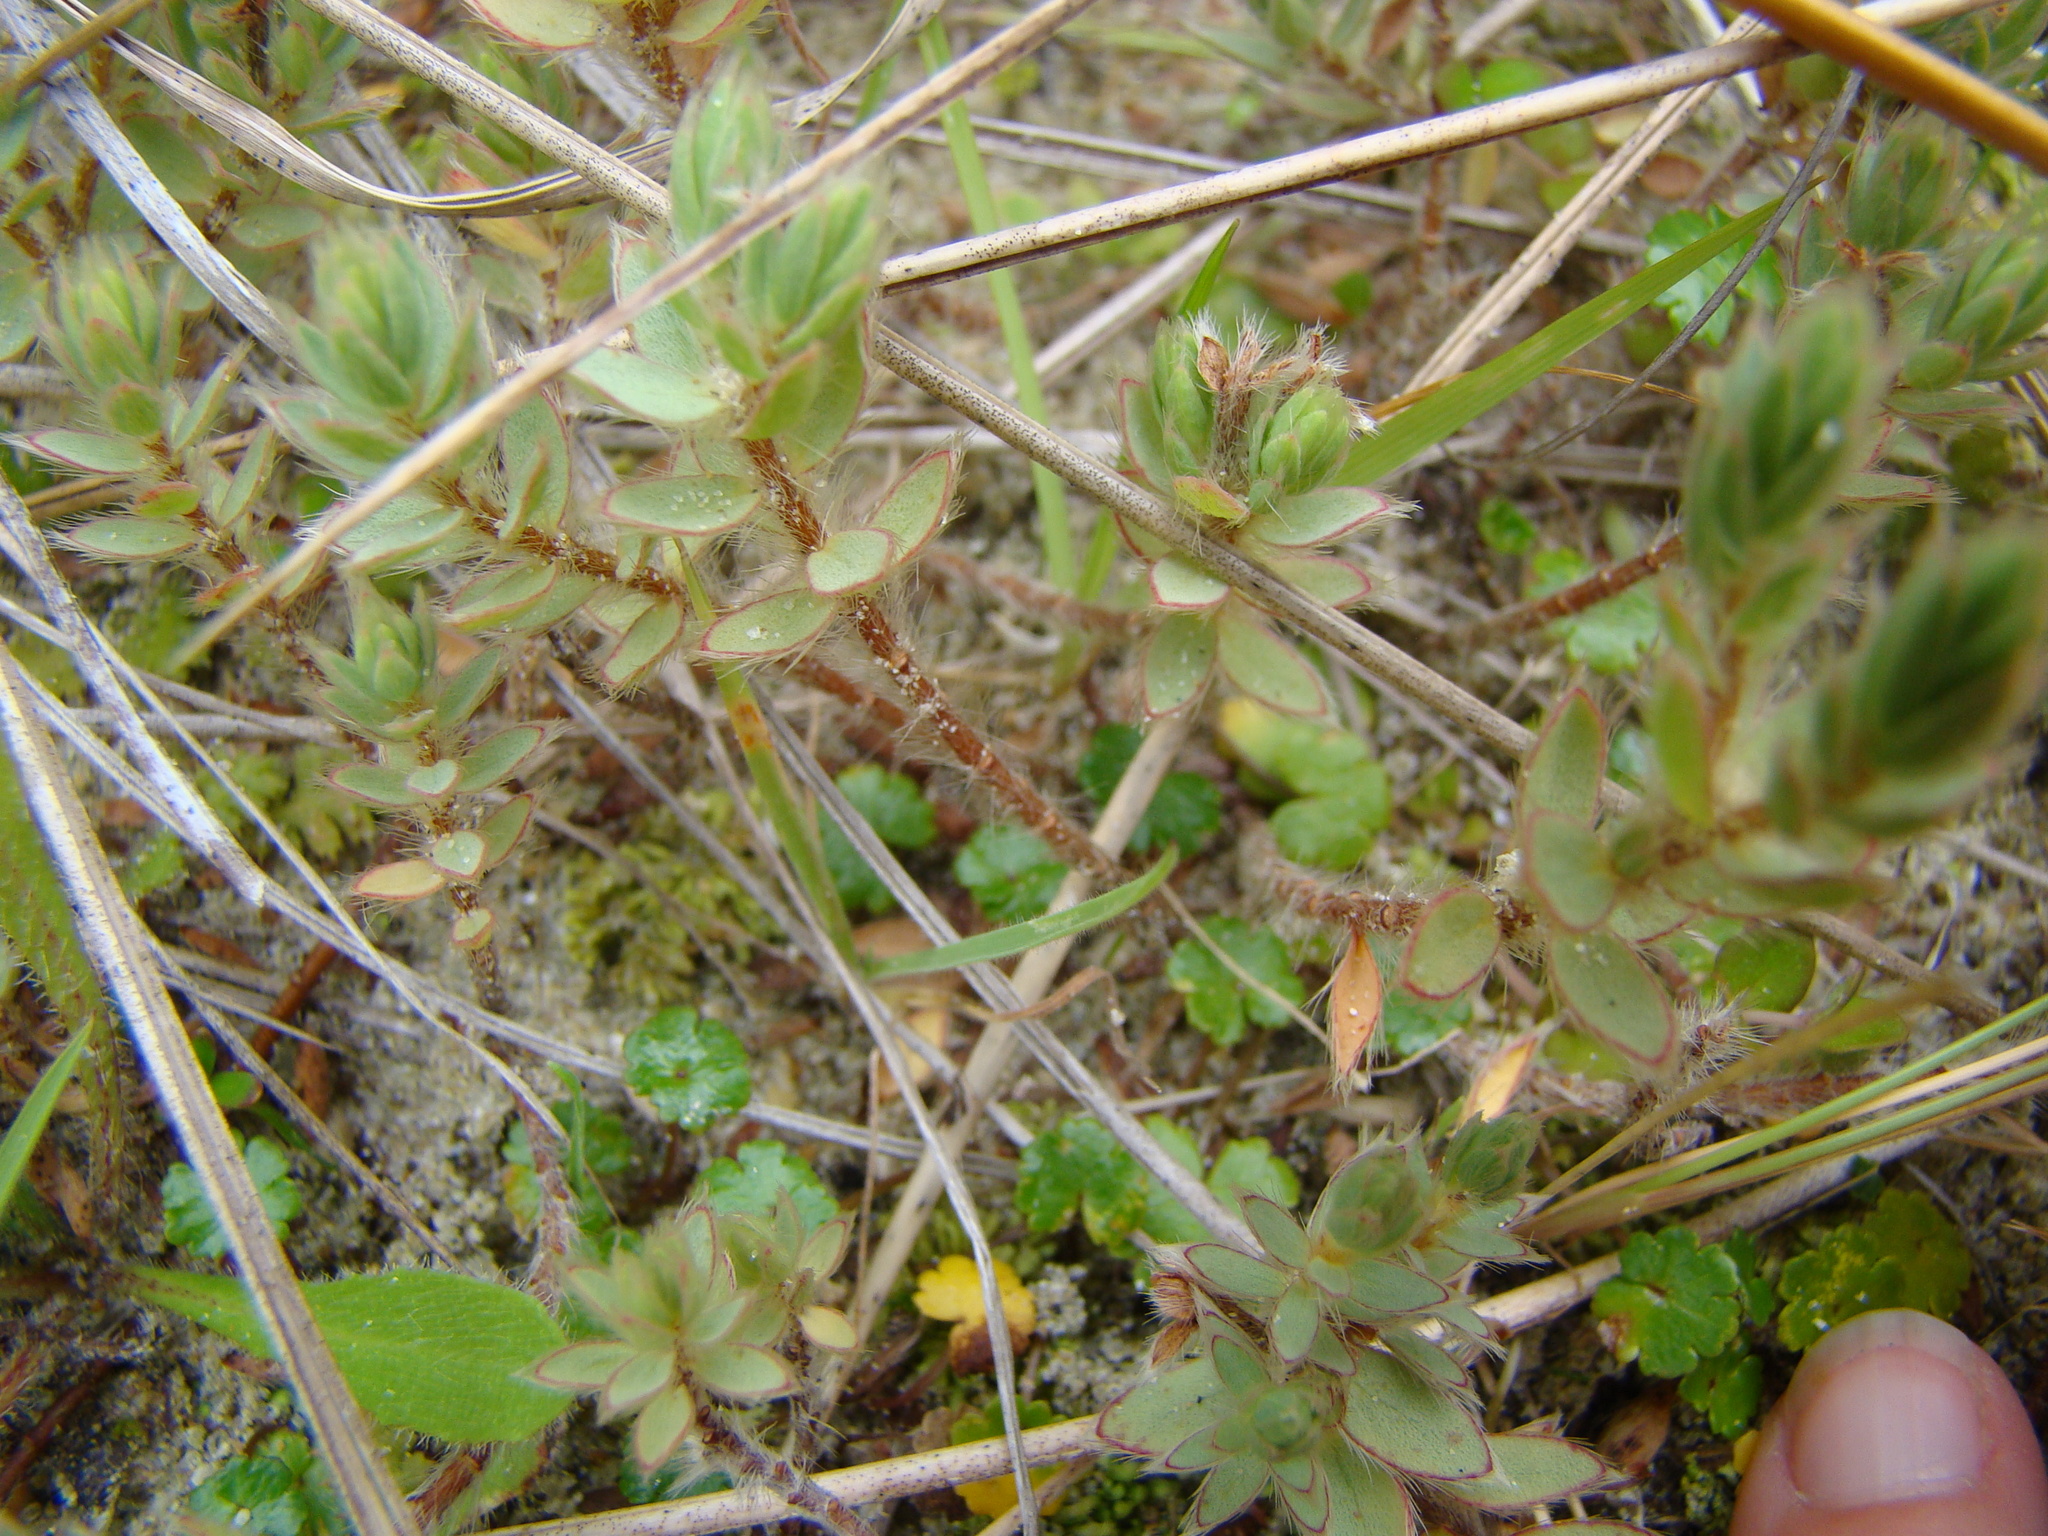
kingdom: Plantae
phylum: Tracheophyta
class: Magnoliopsida
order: Malvales
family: Thymelaeaceae
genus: Pimelea
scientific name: Pimelea lyallii
